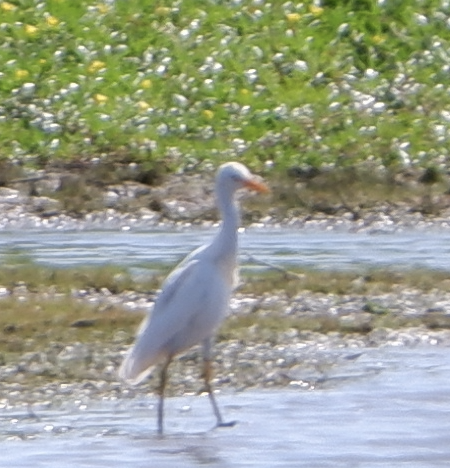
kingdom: Animalia
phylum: Chordata
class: Aves
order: Pelecaniformes
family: Ardeidae
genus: Bubulcus
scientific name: Bubulcus ibis
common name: Cattle egret
